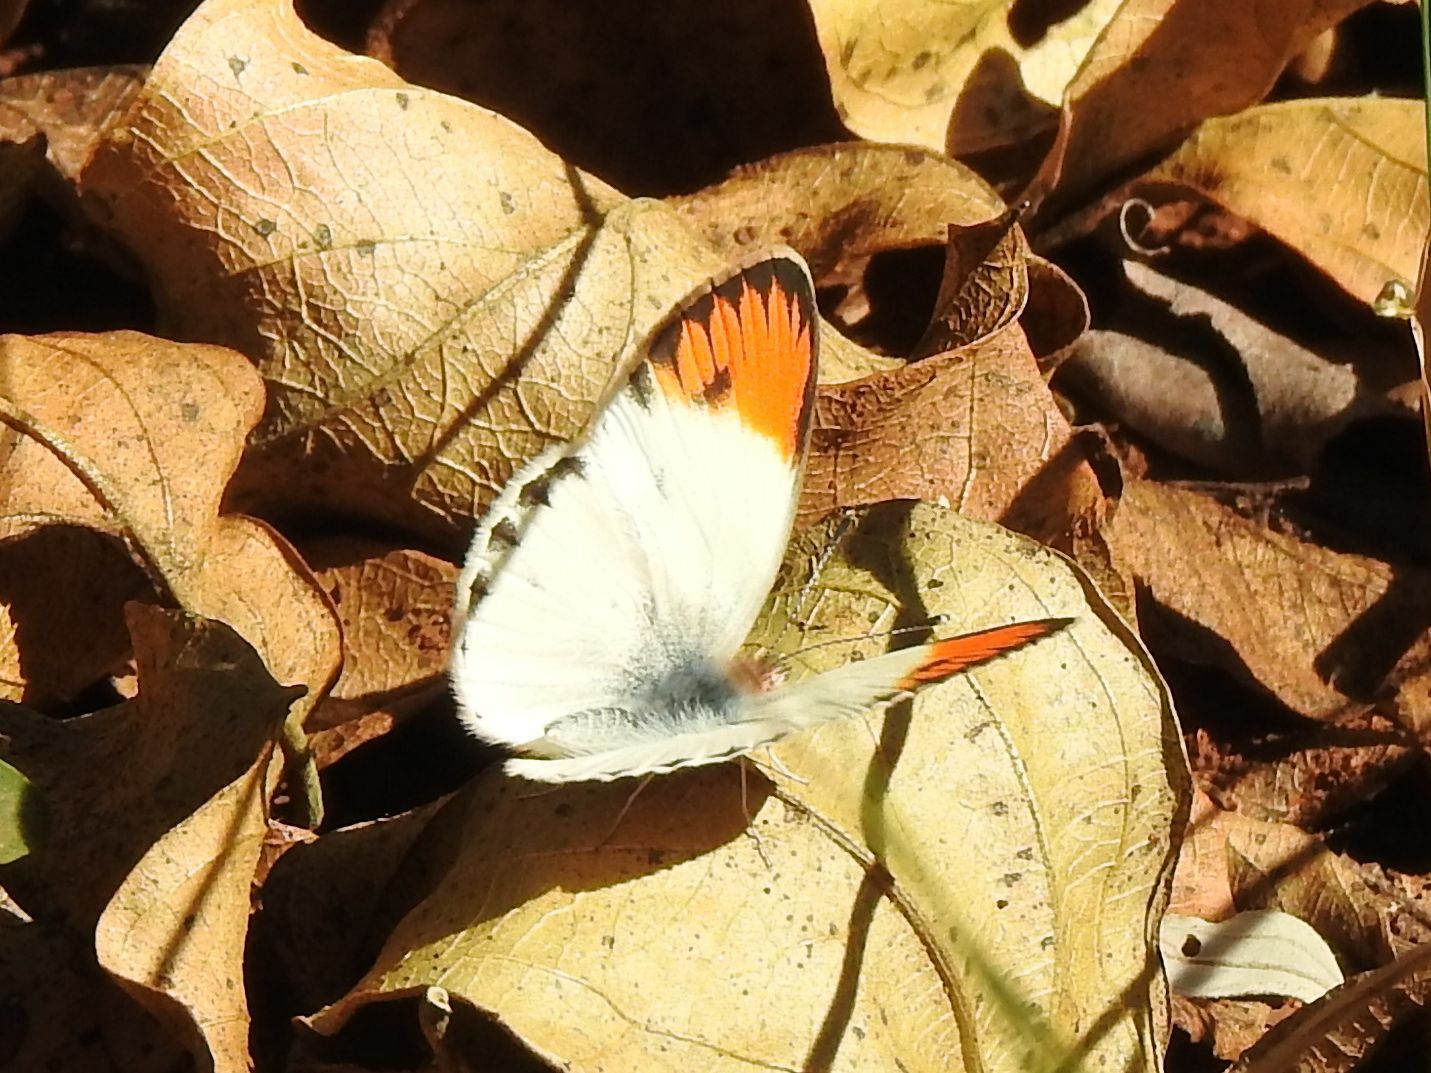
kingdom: Animalia
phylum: Arthropoda
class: Insecta
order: Lepidoptera
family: Pieridae
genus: Colotis
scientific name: Colotis evagore
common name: Desert orange-tip
